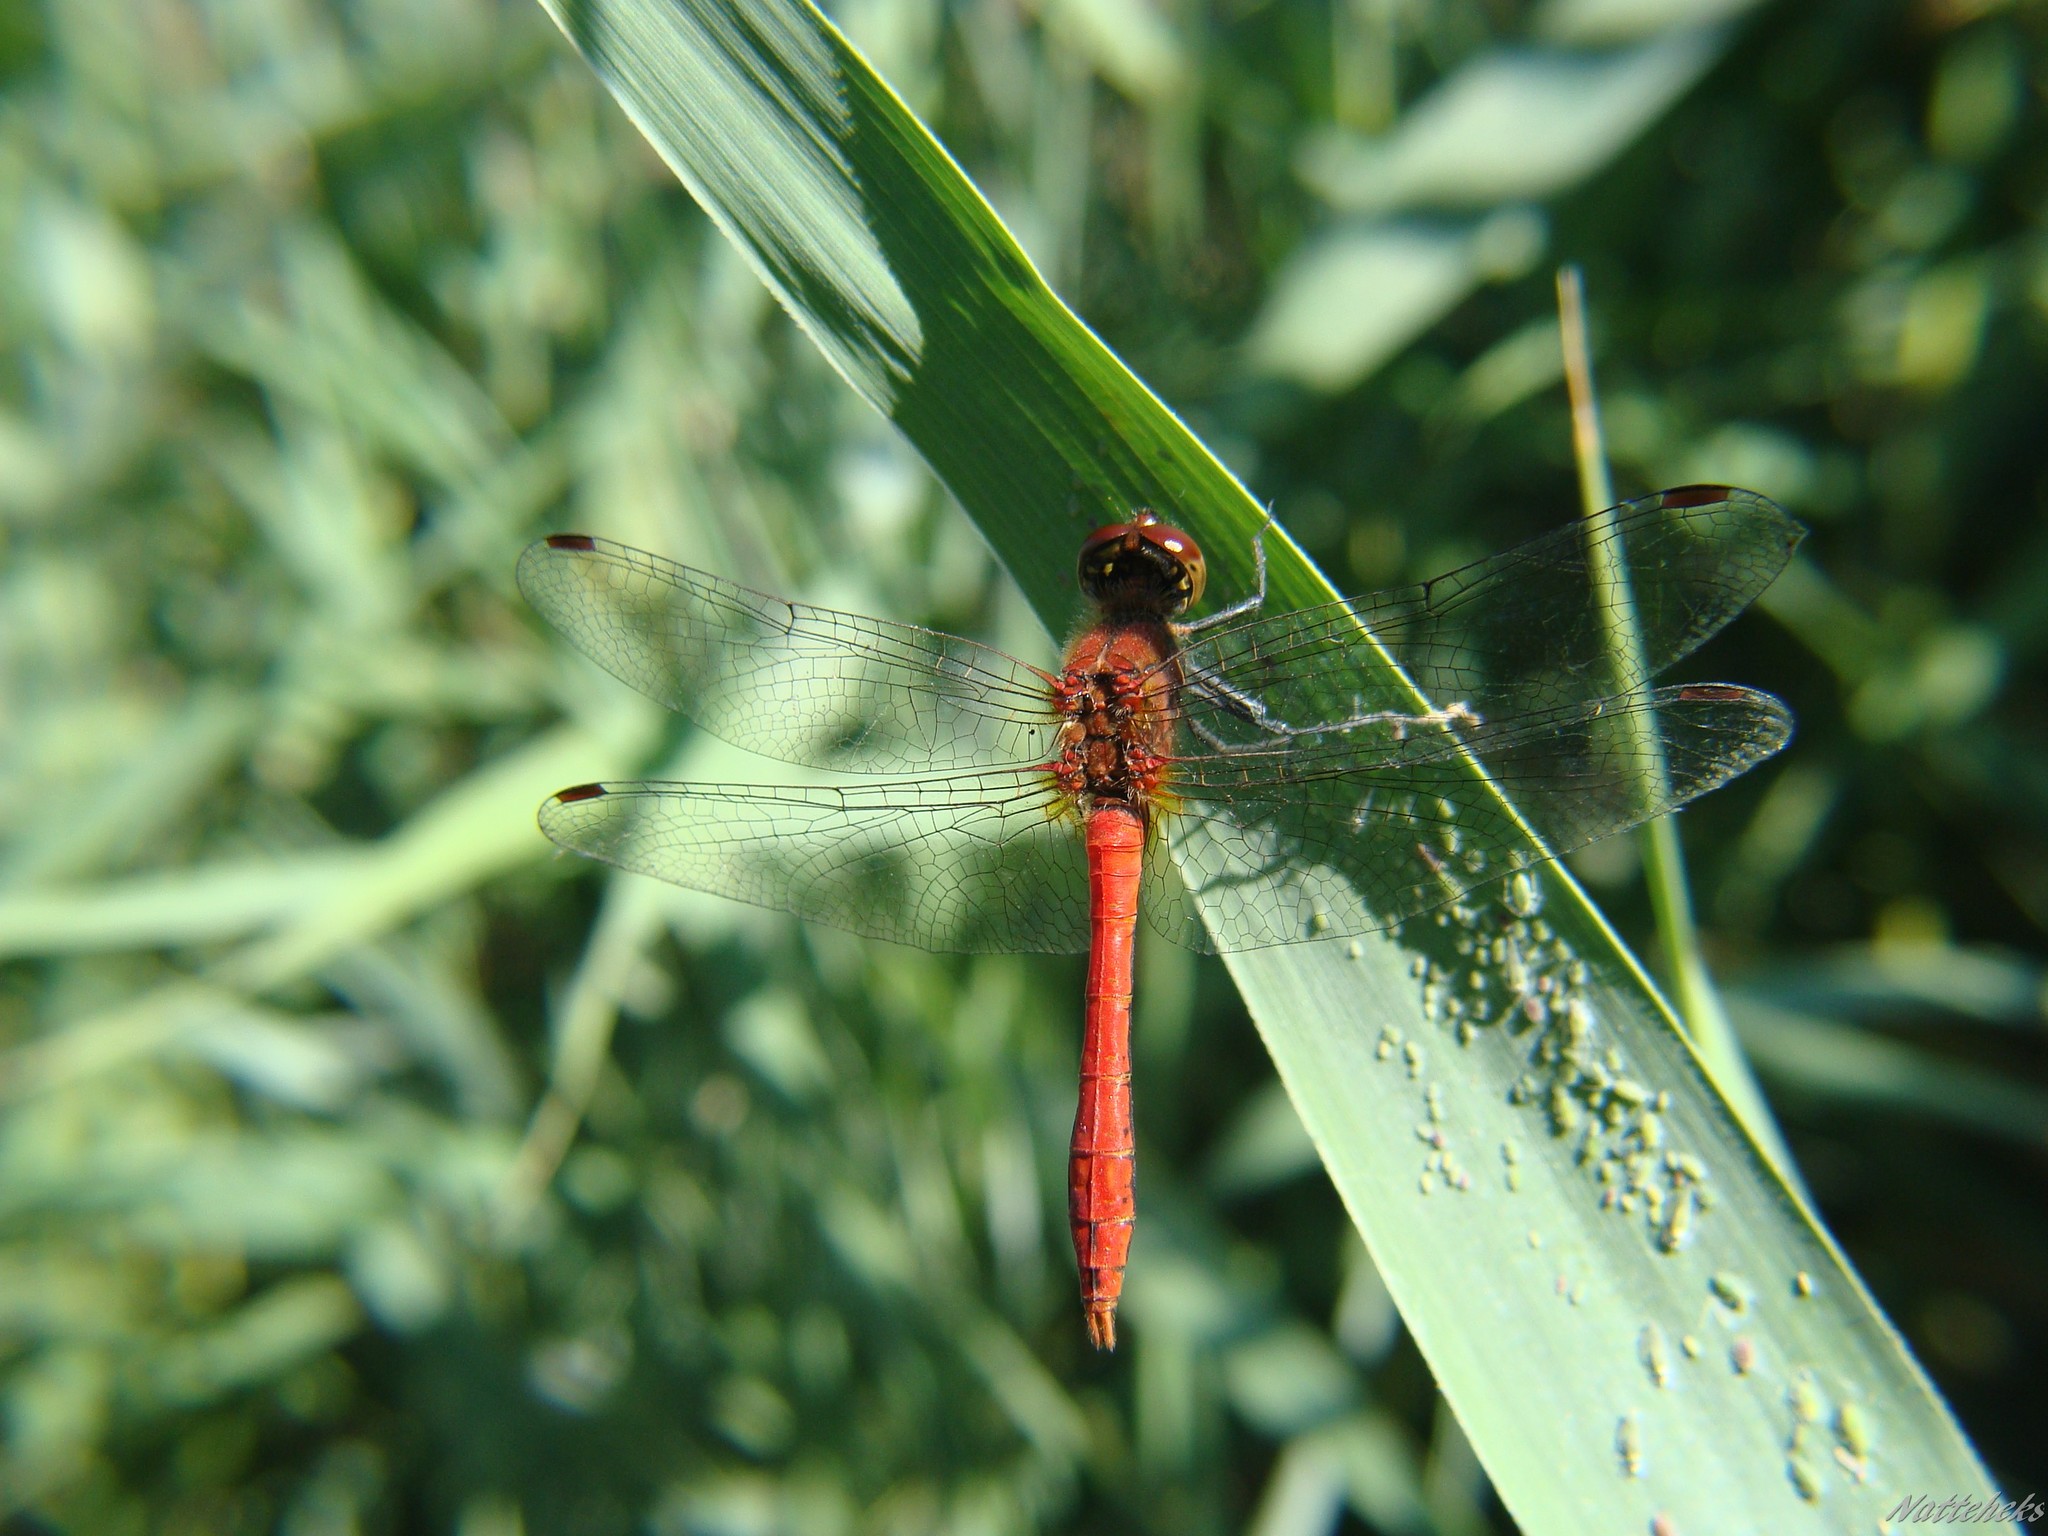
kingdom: Animalia
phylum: Arthropoda
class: Insecta
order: Odonata
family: Libellulidae
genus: Sympetrum
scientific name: Sympetrum sanguineum
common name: Ruddy darter
